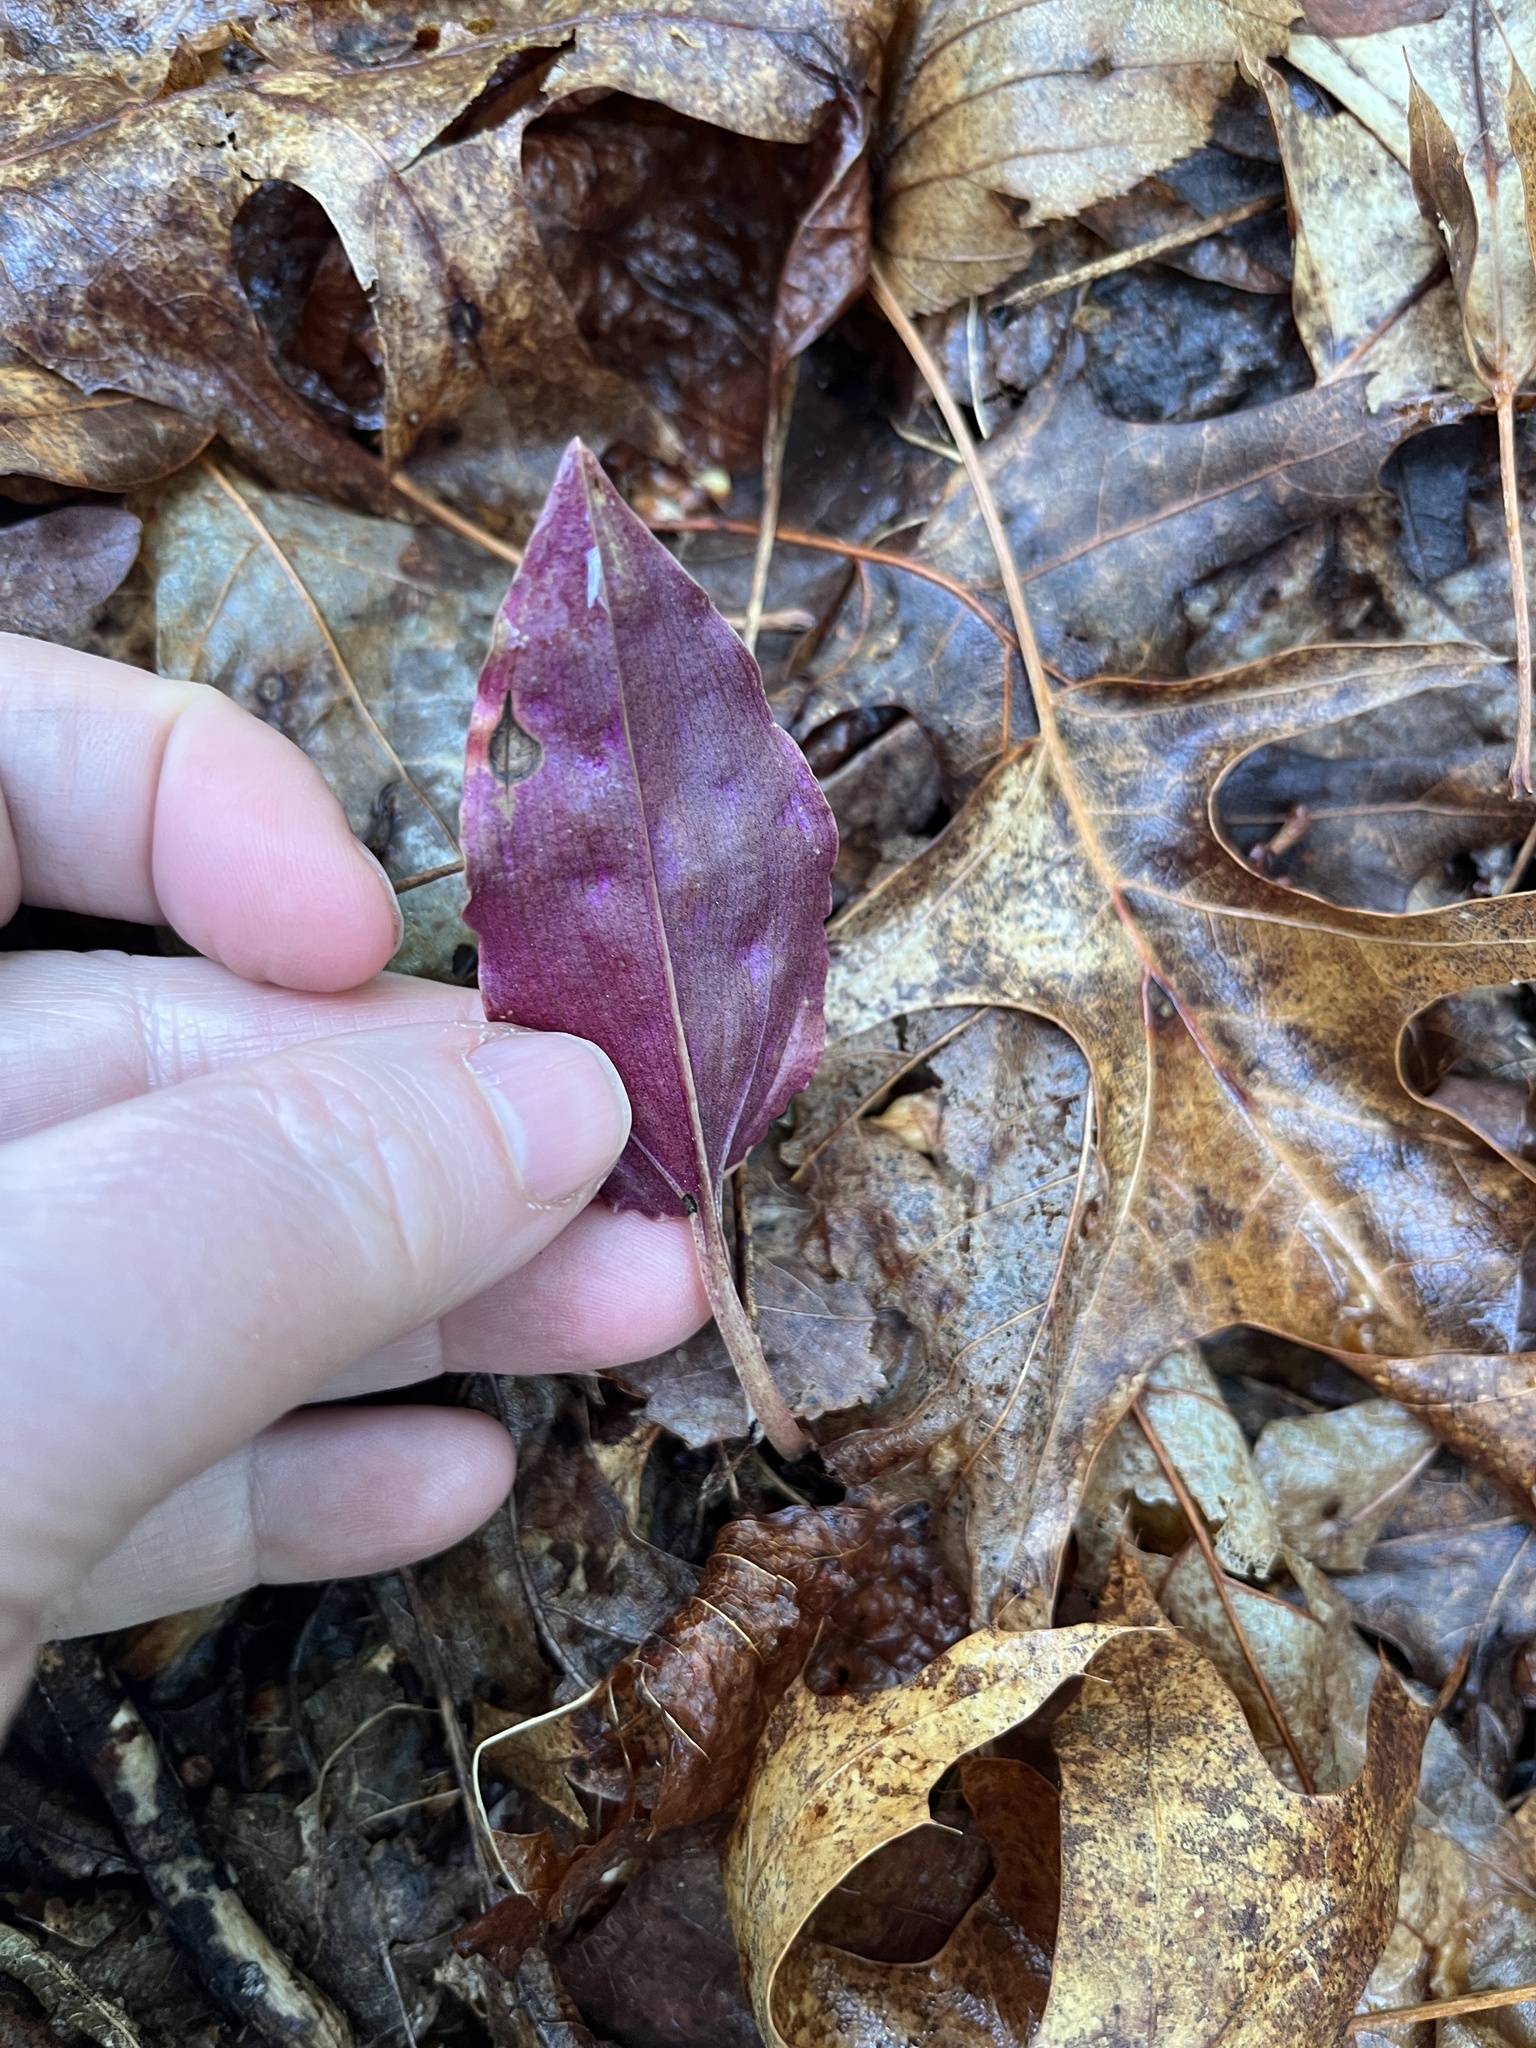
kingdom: Plantae
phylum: Tracheophyta
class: Liliopsida
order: Asparagales
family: Orchidaceae
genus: Tipularia
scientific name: Tipularia discolor
